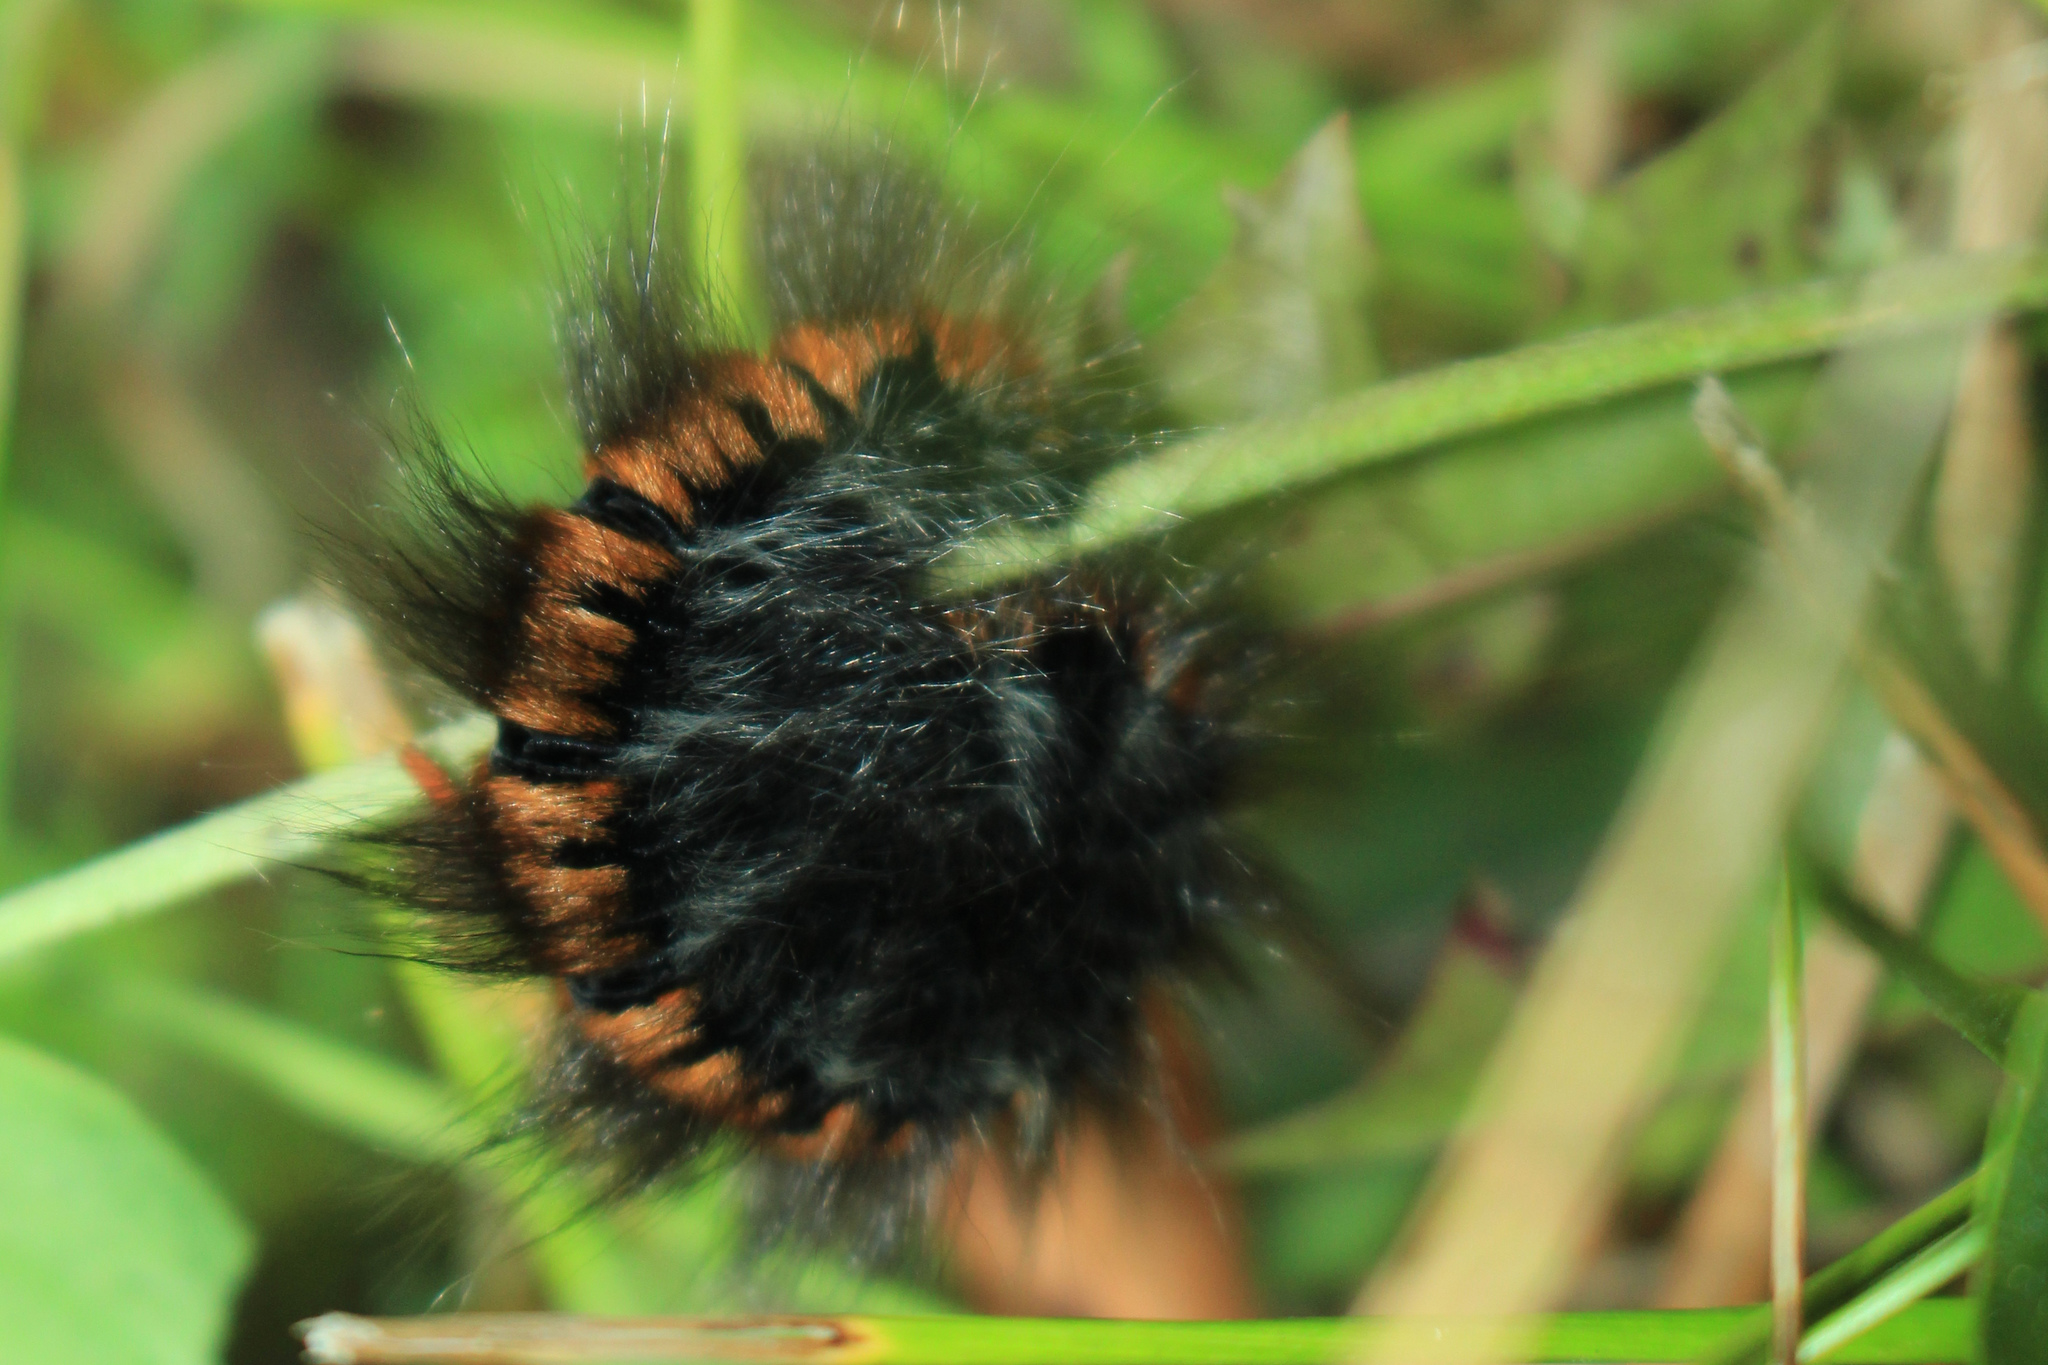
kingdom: Animalia
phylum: Arthropoda
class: Insecta
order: Lepidoptera
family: Lasiocampidae
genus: Macrothylacia
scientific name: Macrothylacia rubi
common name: Fox moth
